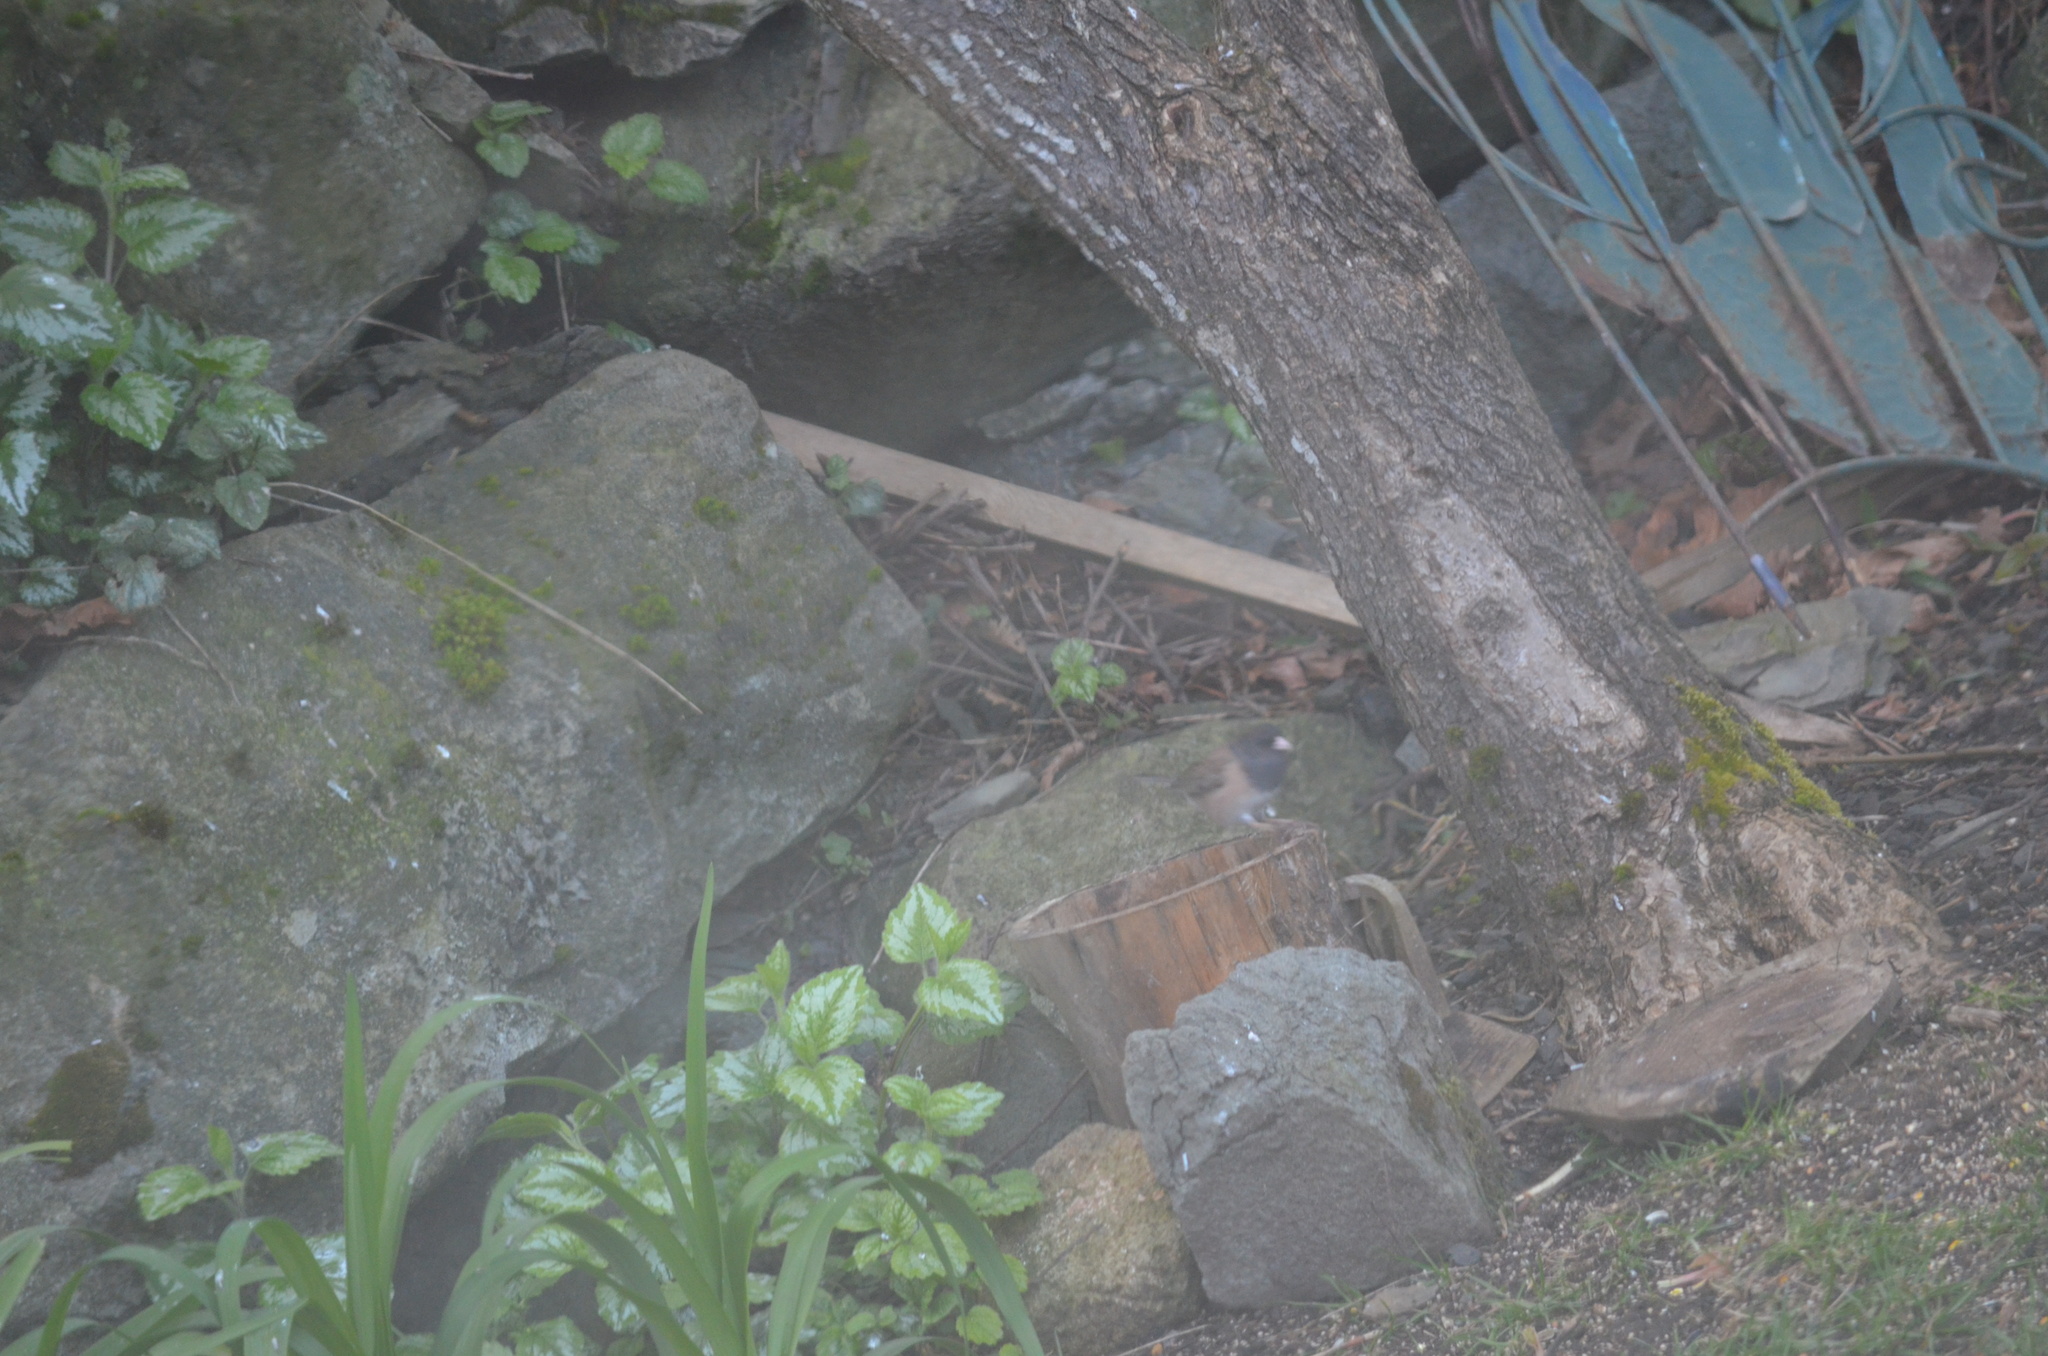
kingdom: Animalia
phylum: Chordata
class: Aves
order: Passeriformes
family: Passerellidae
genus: Junco
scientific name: Junco hyemalis
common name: Dark-eyed junco
